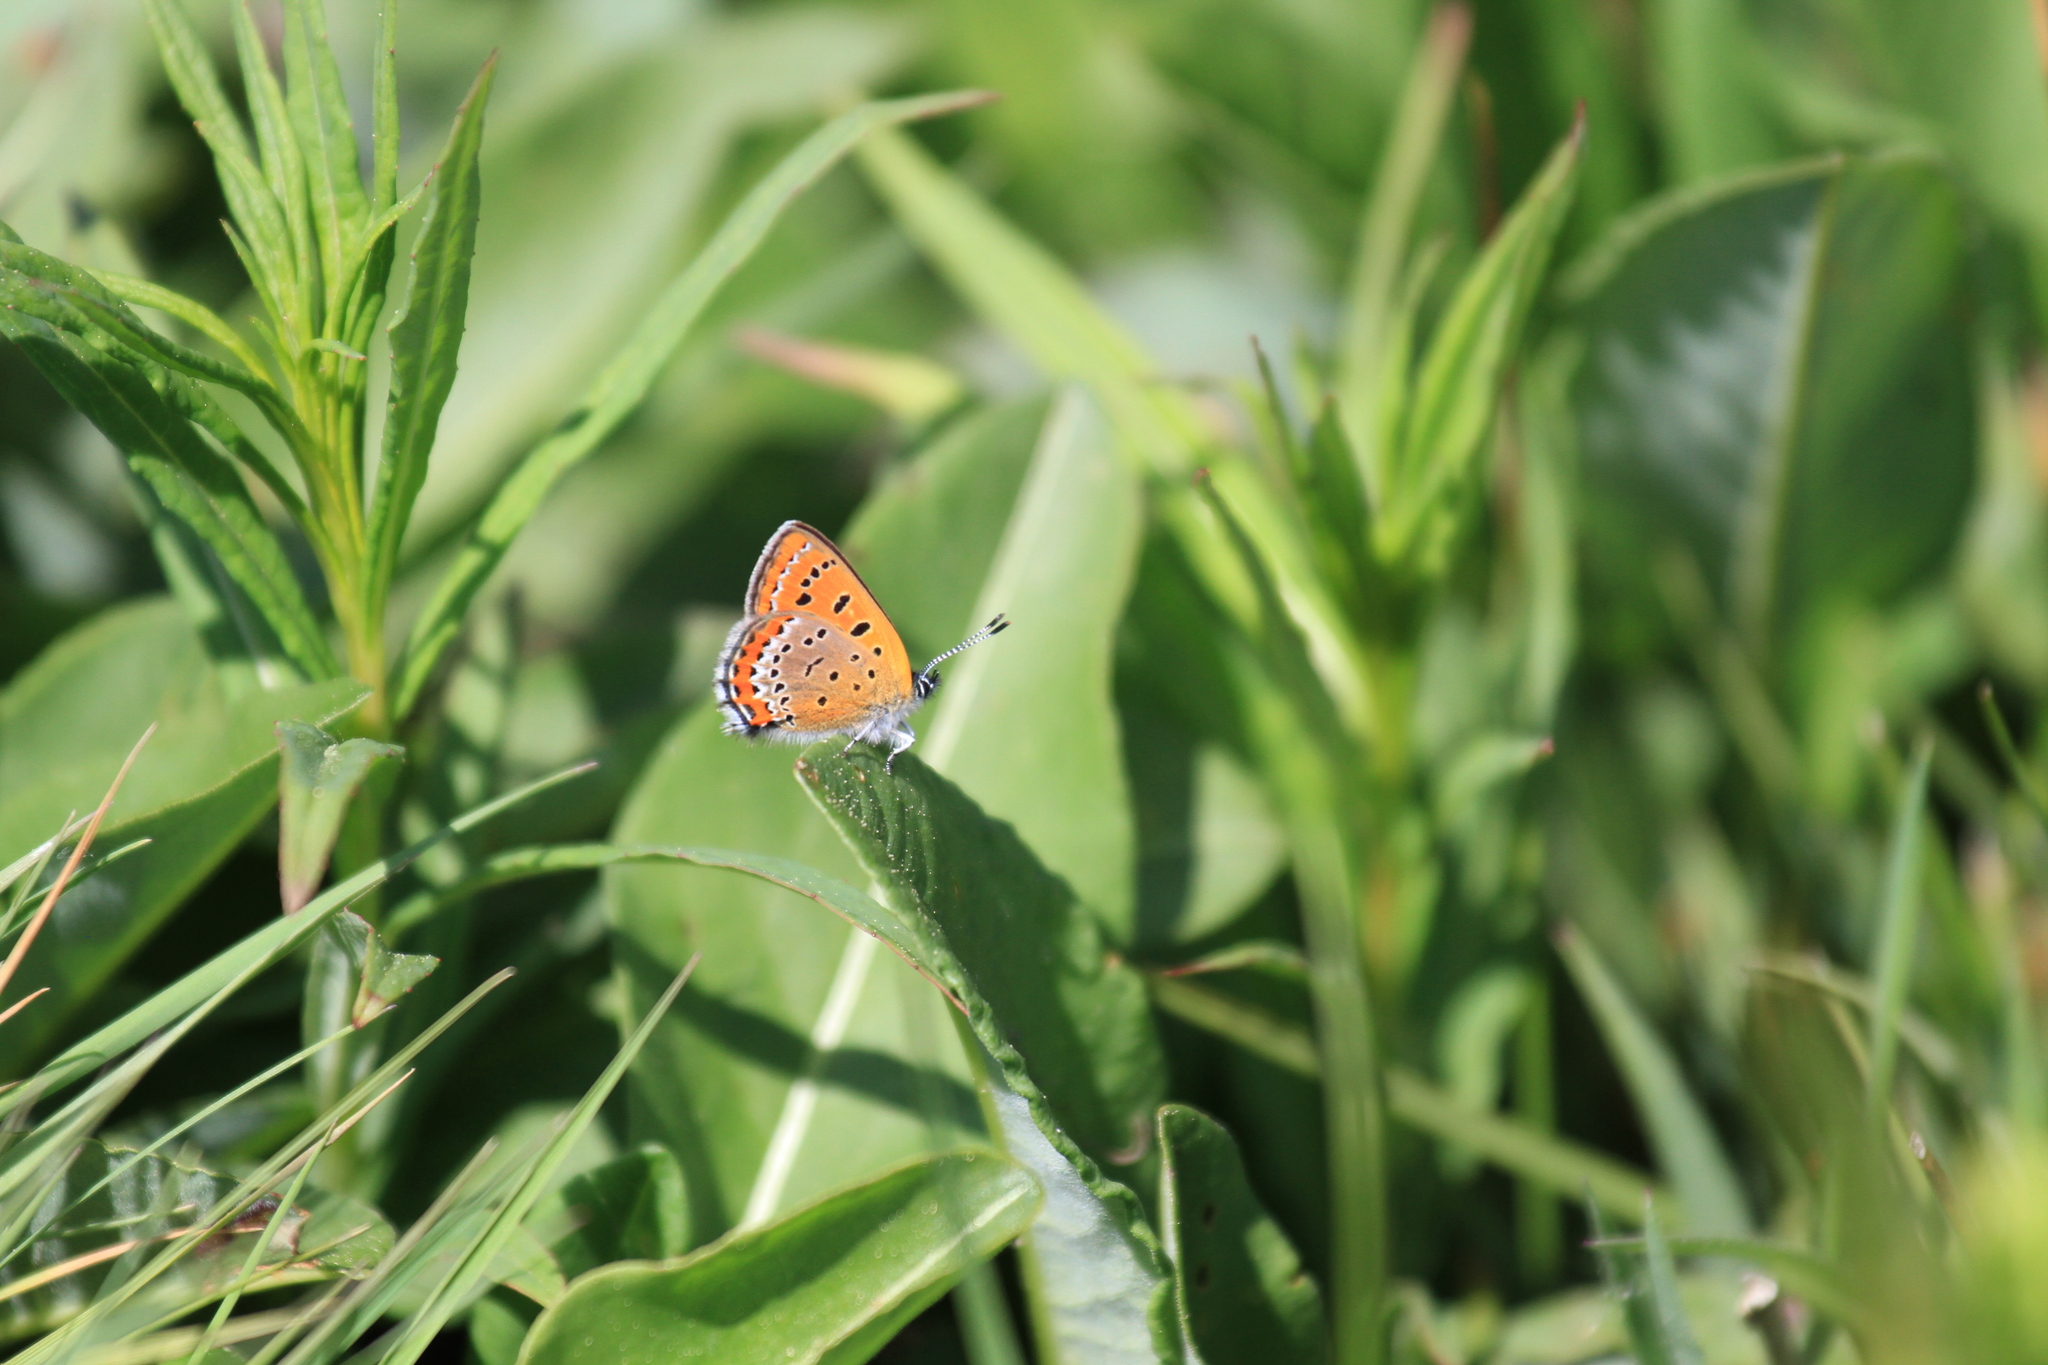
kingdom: Animalia
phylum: Arthropoda
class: Insecta
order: Lepidoptera
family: Lycaenidae
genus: Helleia
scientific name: Helleia helle
